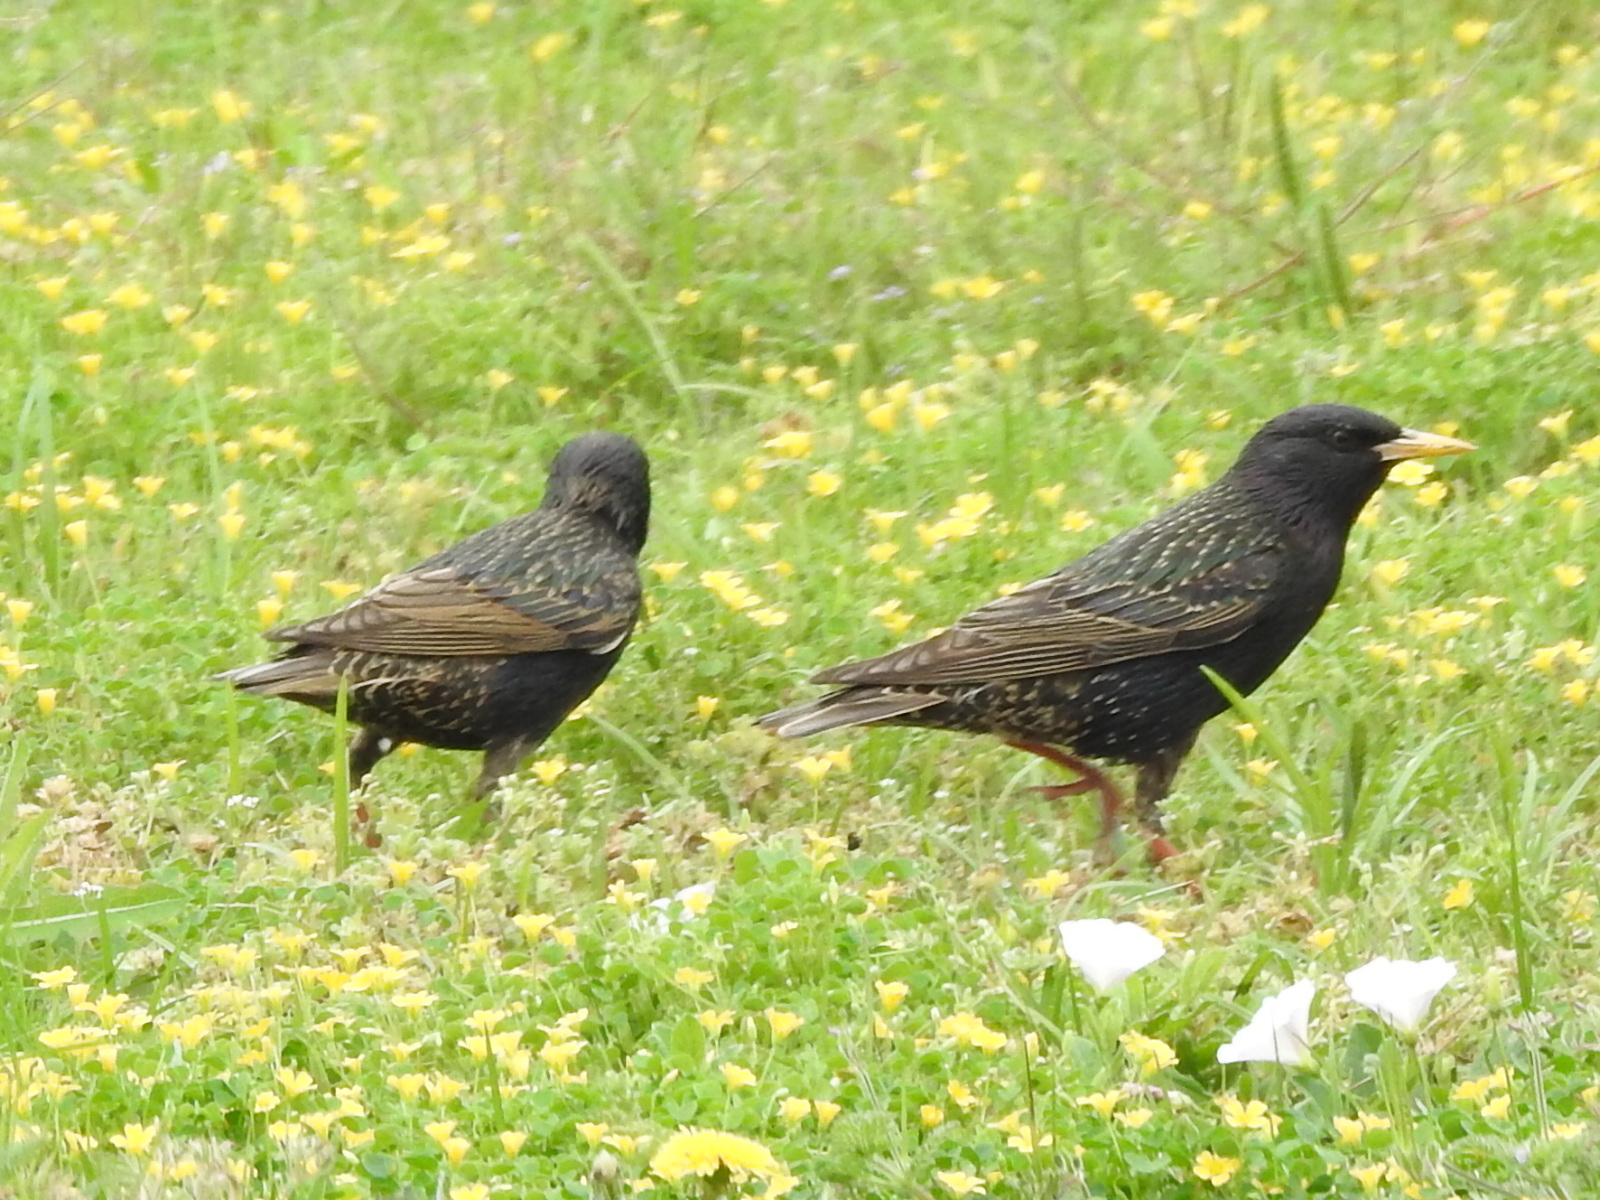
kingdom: Animalia
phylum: Chordata
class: Aves
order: Passeriformes
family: Sturnidae
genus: Sturnus
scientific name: Sturnus vulgaris
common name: Common starling
